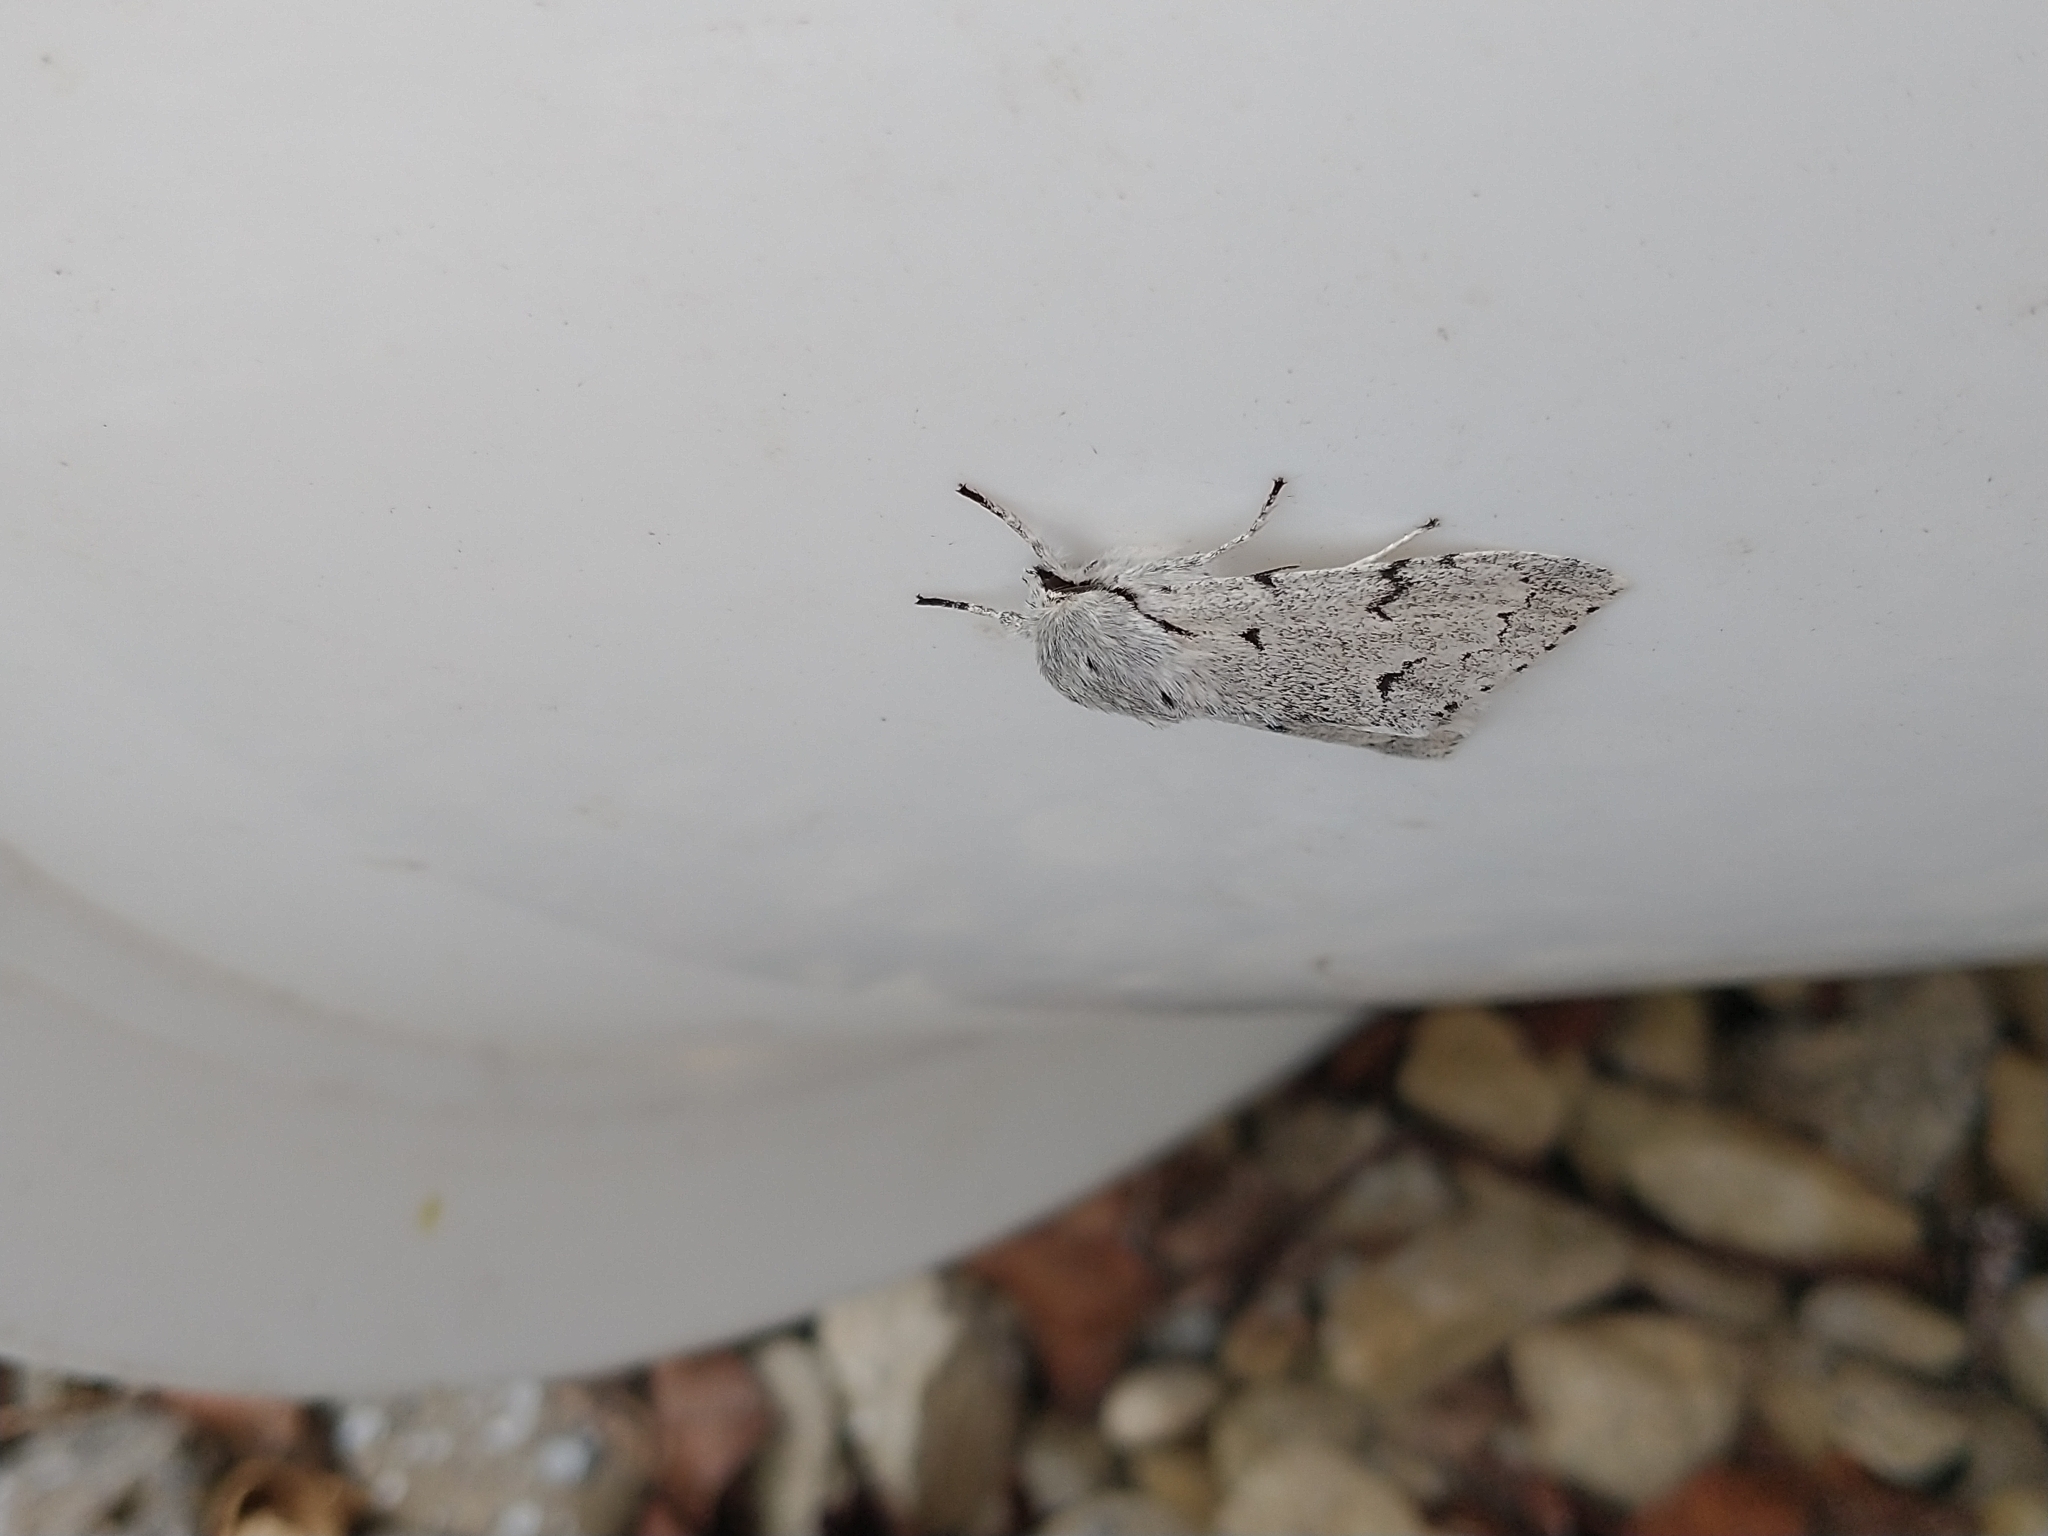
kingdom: Animalia
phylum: Arthropoda
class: Insecta
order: Lepidoptera
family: Noctuidae
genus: Acronicta
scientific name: Acronicta leporina
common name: Miller
